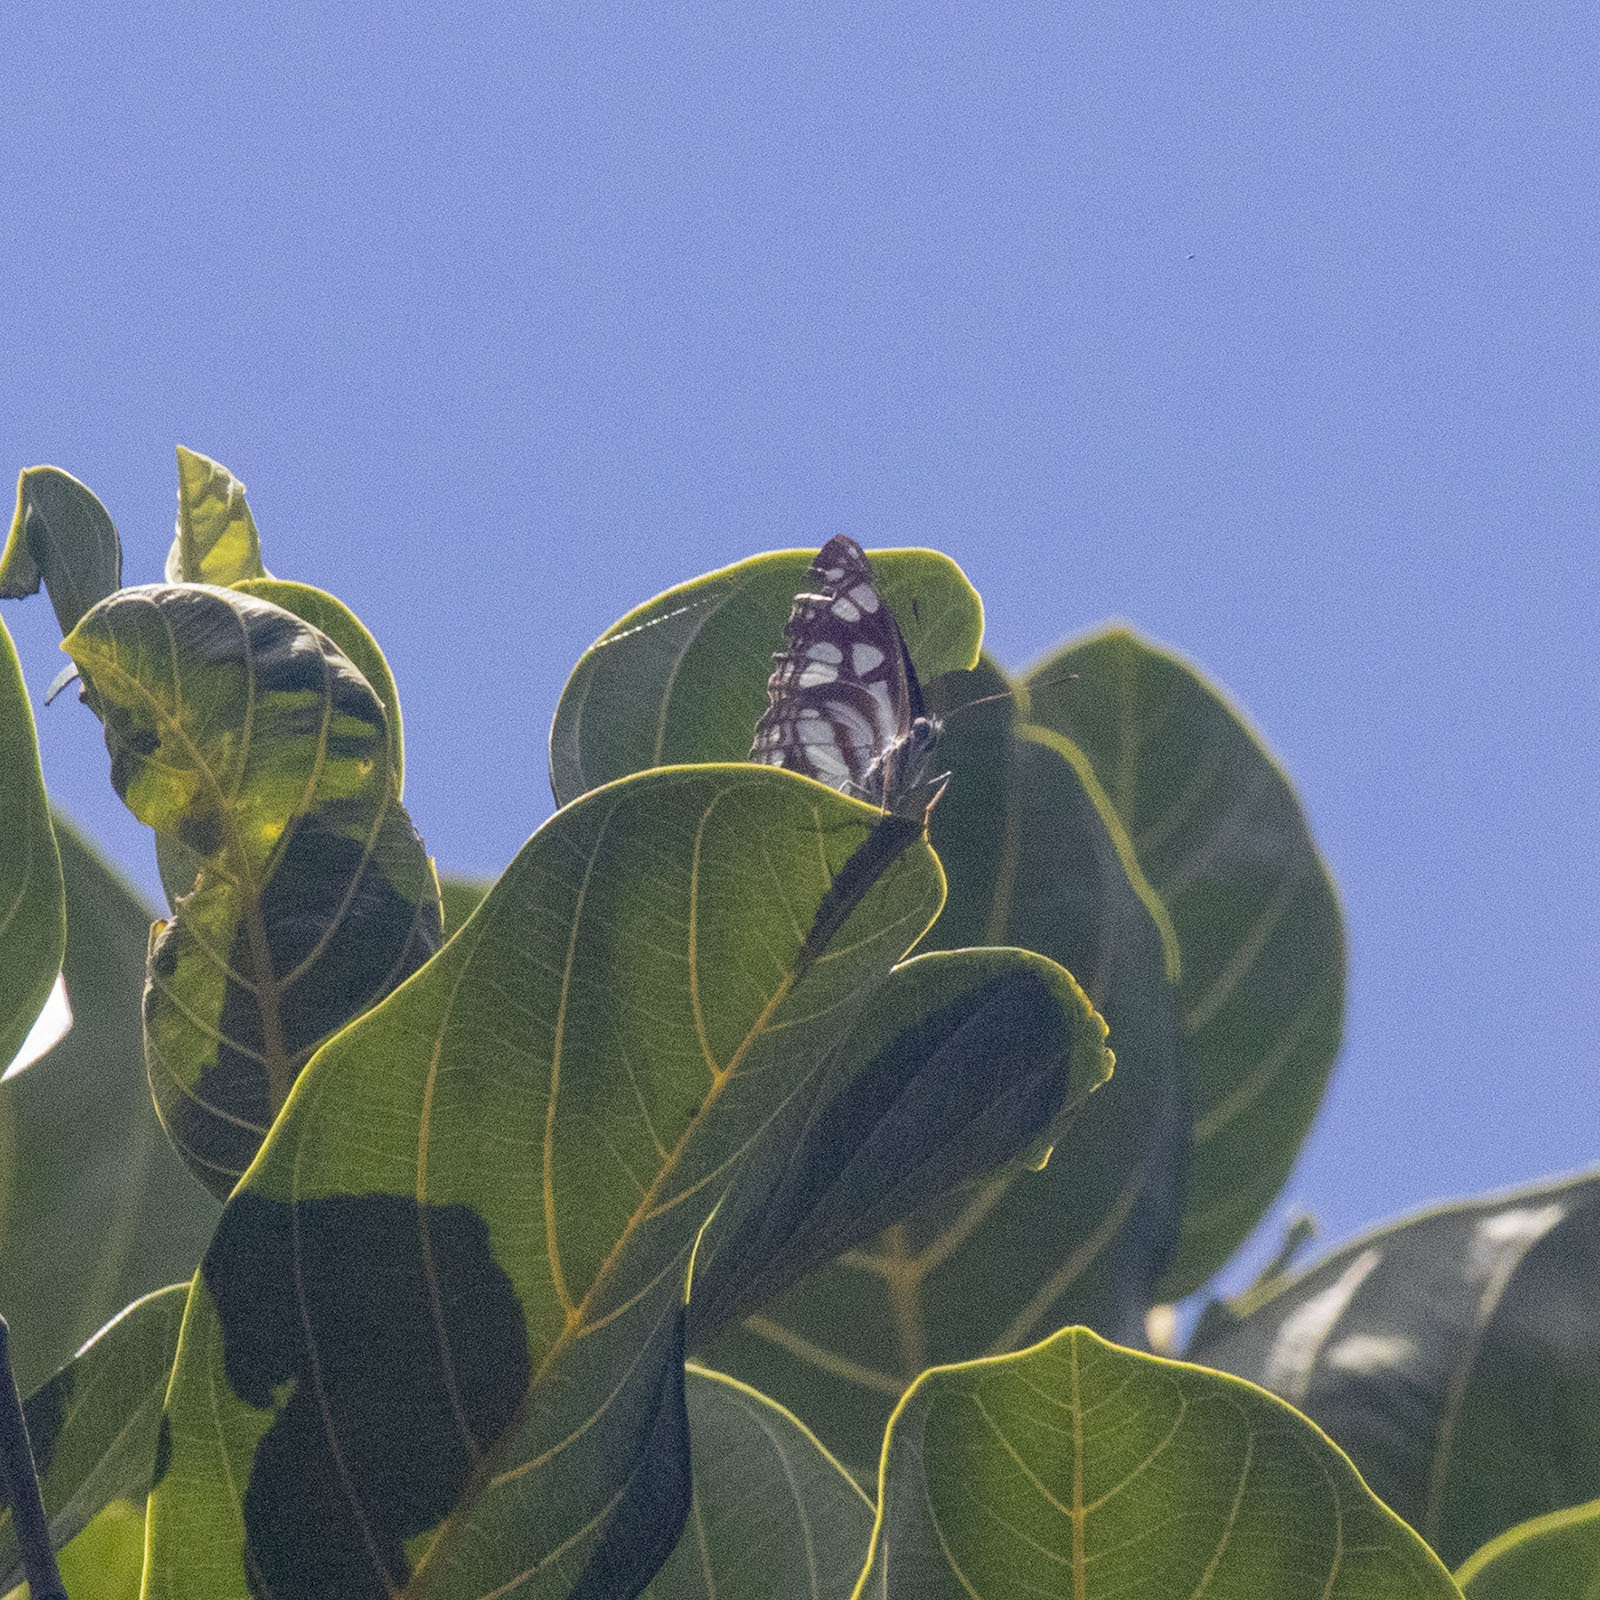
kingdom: Animalia
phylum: Arthropoda
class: Insecta
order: Lepidoptera
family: Nymphalidae
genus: Phaedyma
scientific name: Phaedyma columella
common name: Short banded sailer
